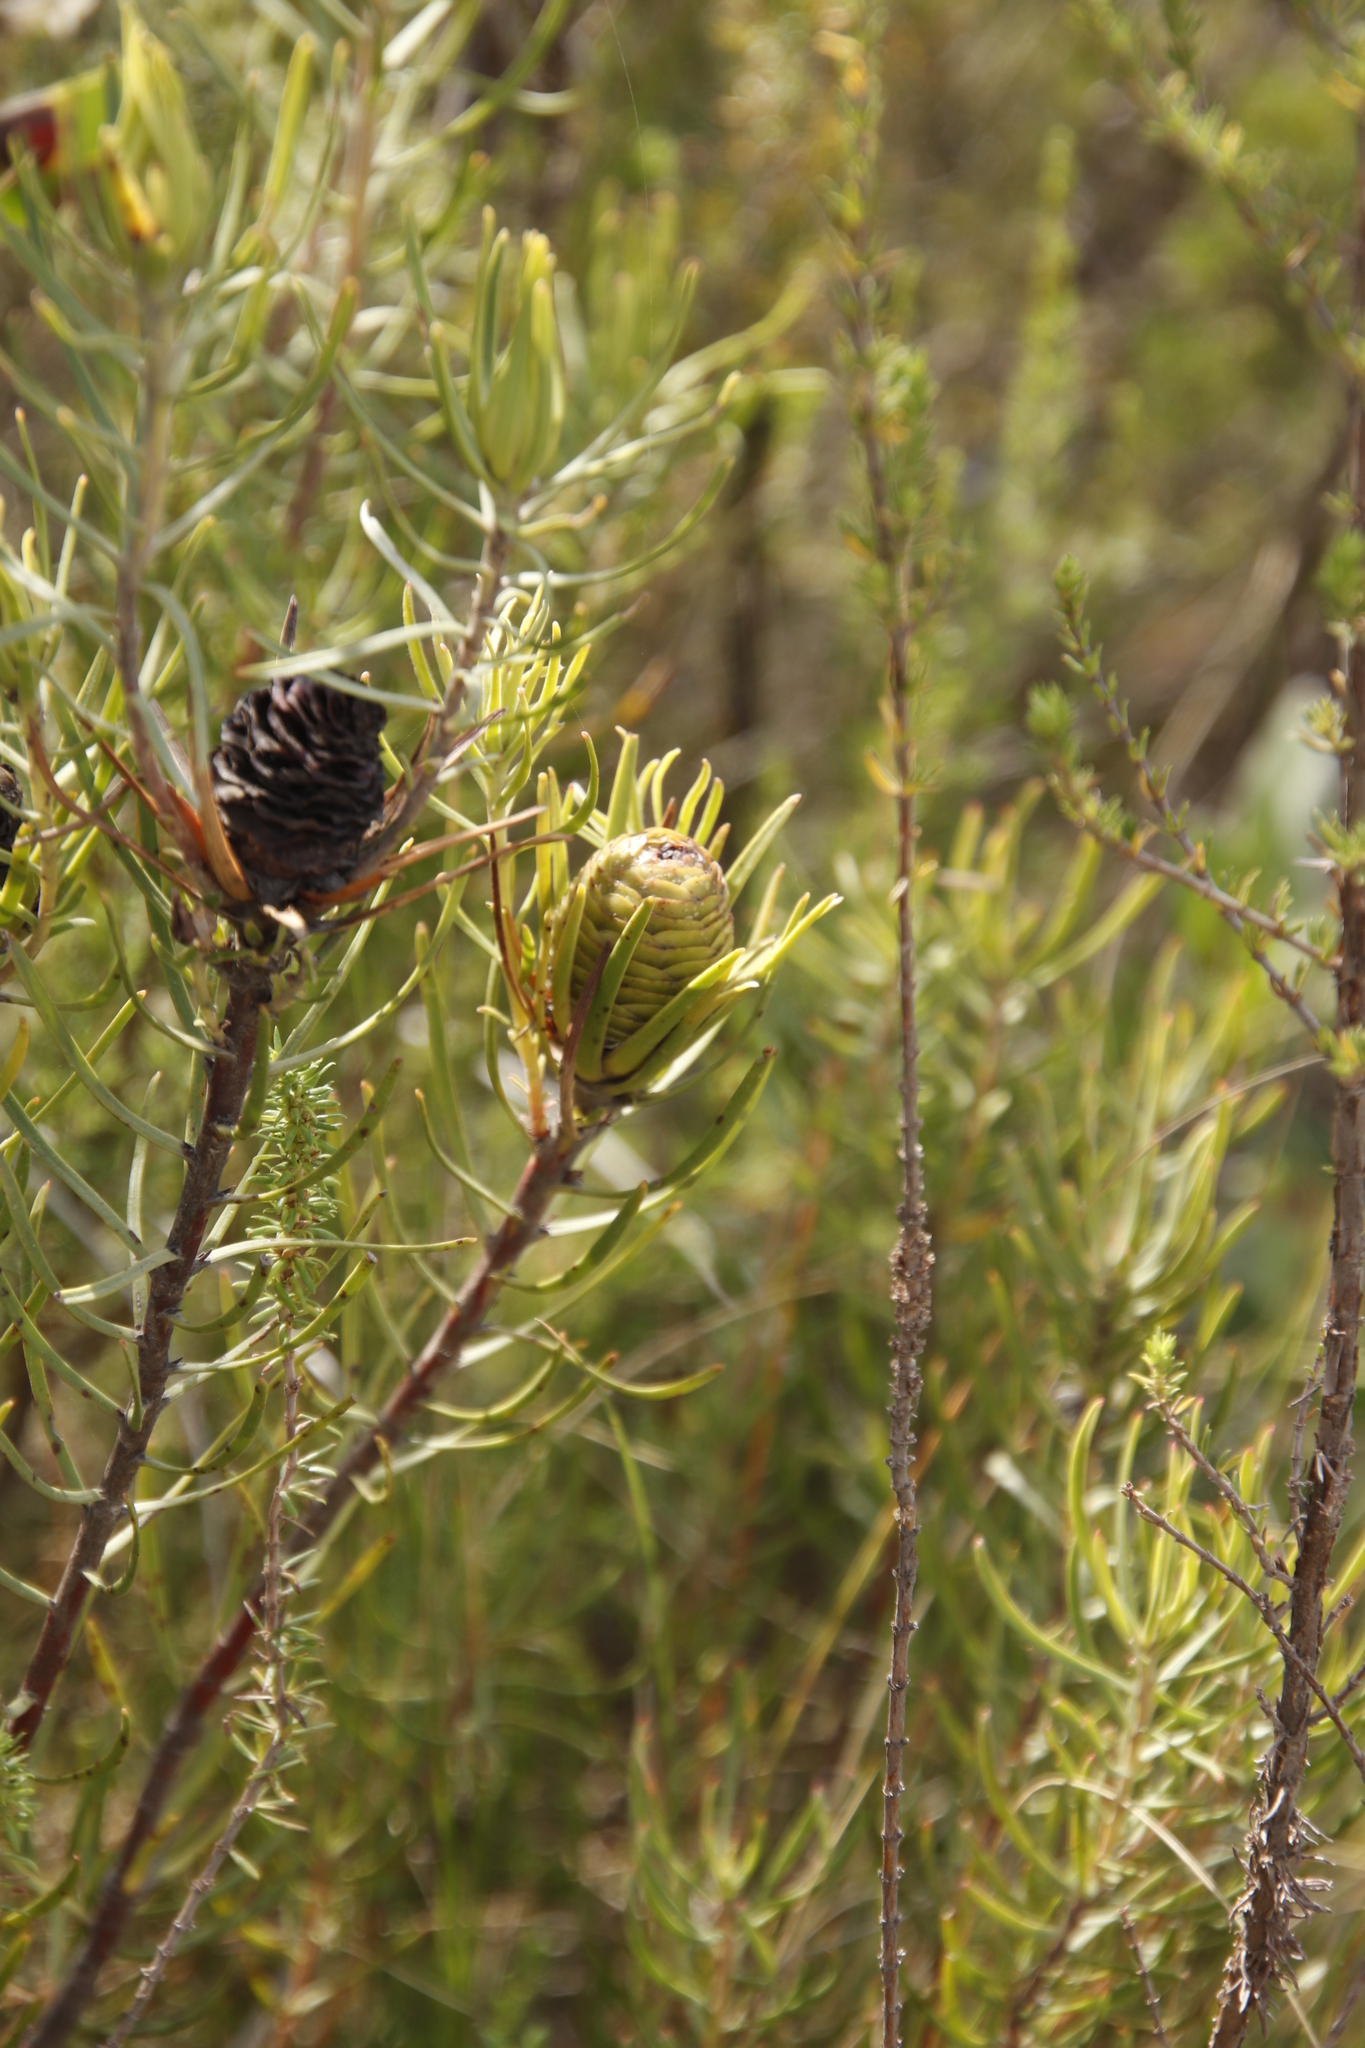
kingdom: Plantae
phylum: Tracheophyta
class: Magnoliopsida
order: Proteales
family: Proteaceae
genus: Leucadendron
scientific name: Leucadendron spissifolium
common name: Spear-leaf conebush
